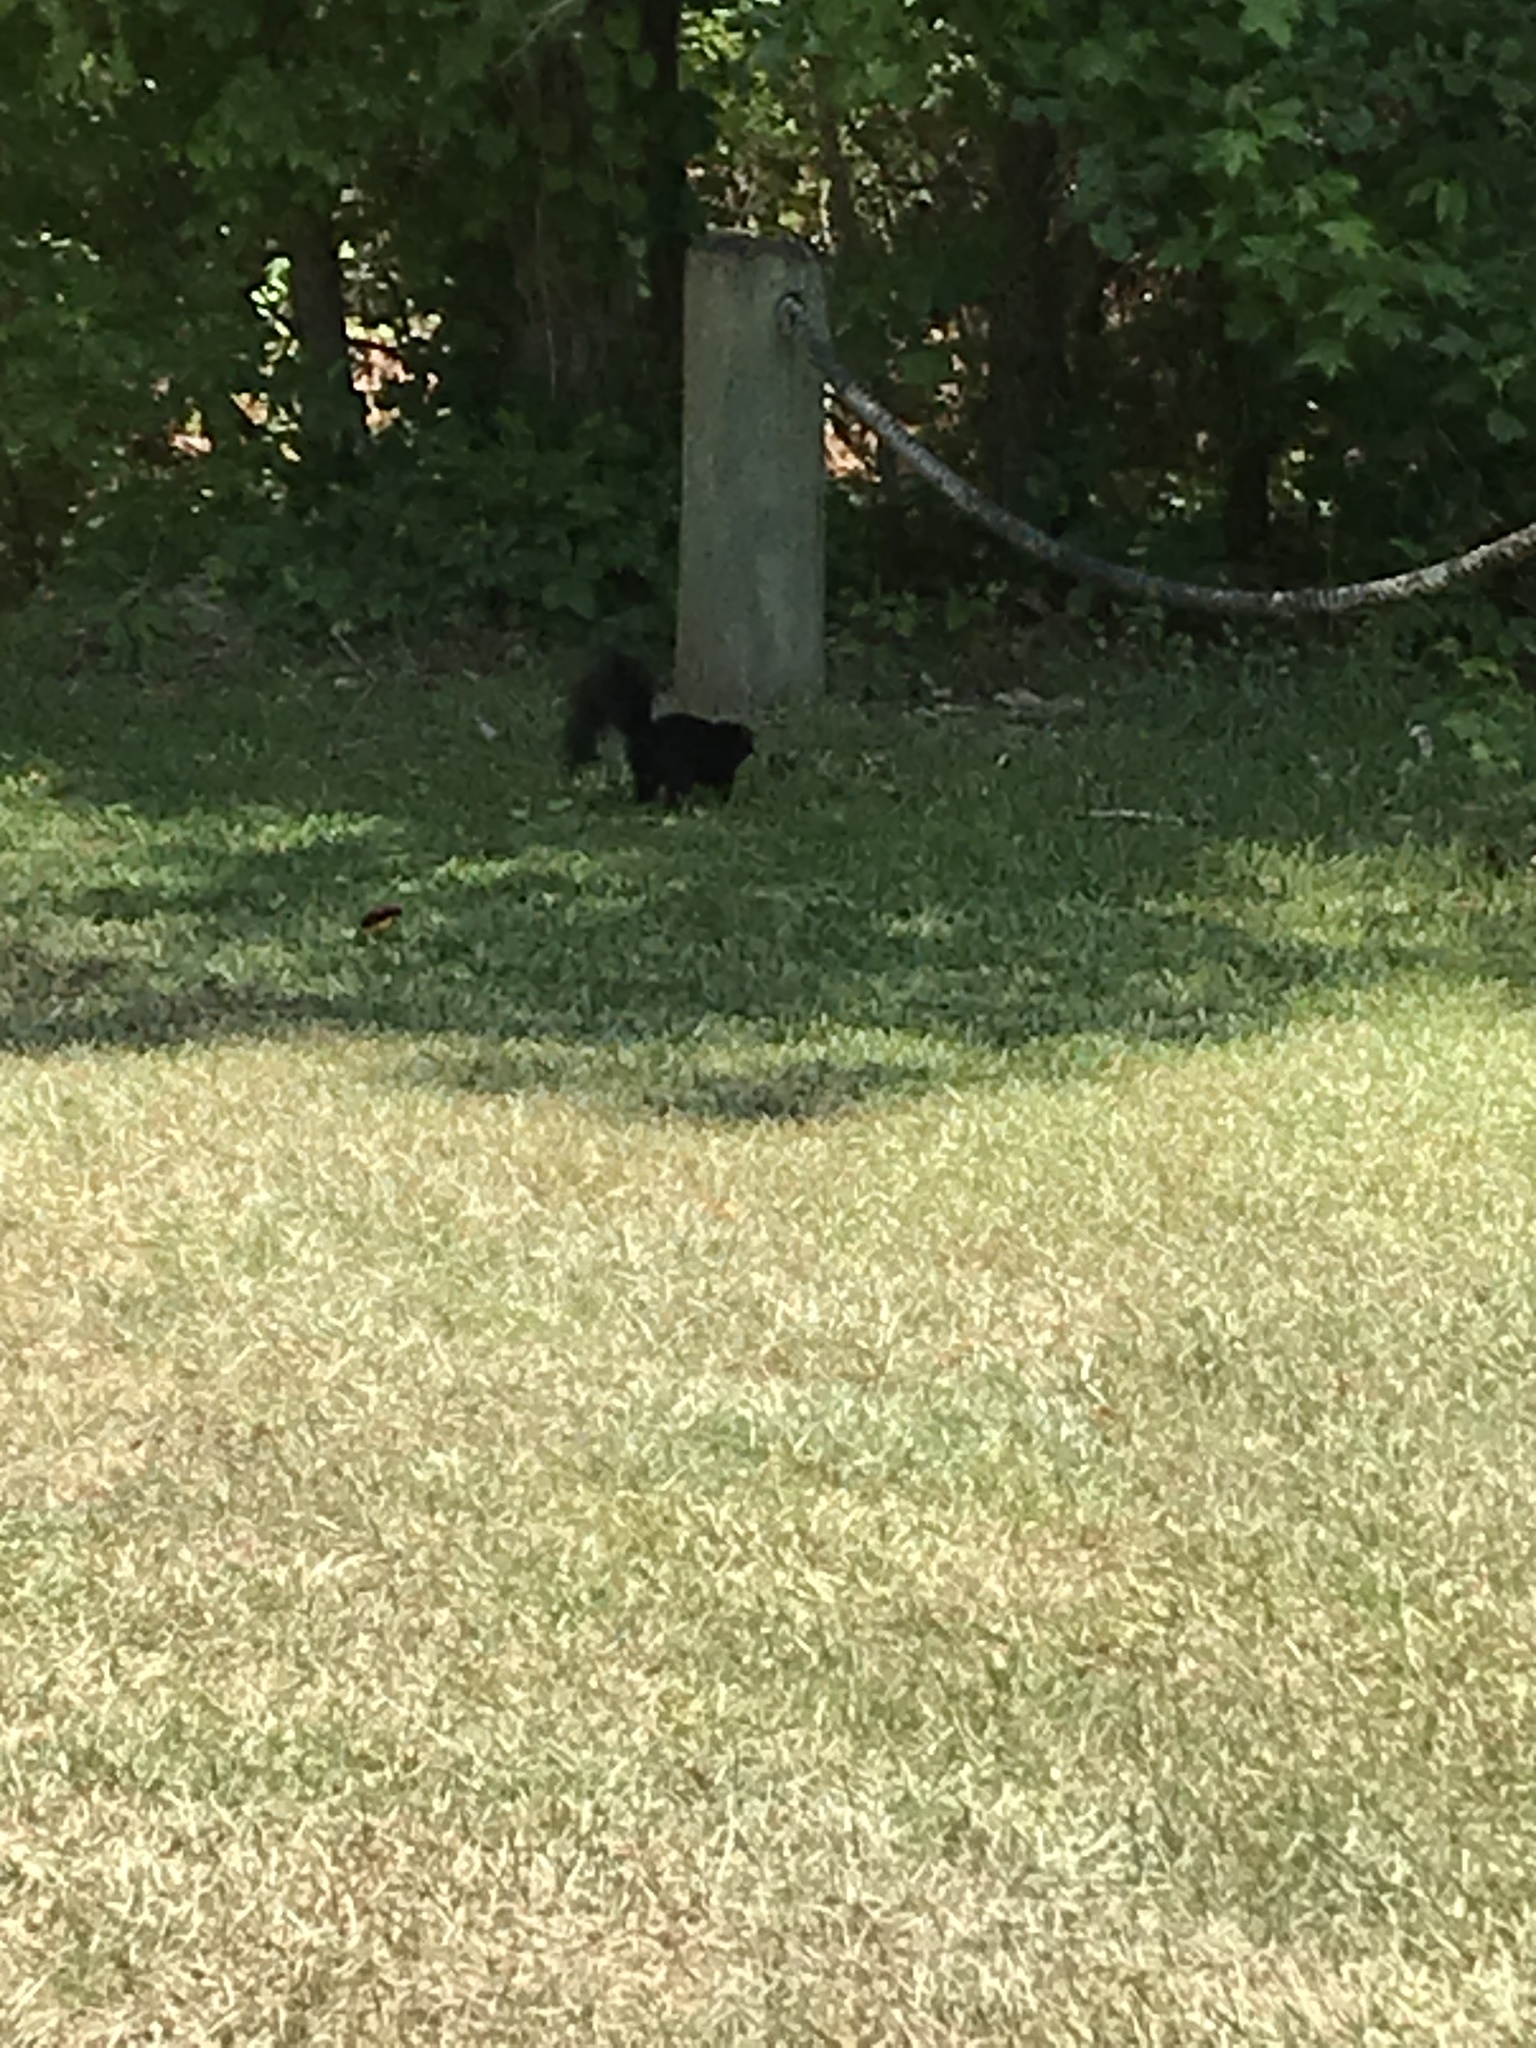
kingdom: Animalia
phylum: Chordata
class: Mammalia
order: Rodentia
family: Sciuridae
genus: Sciurus
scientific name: Sciurus niger
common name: Fox squirrel
